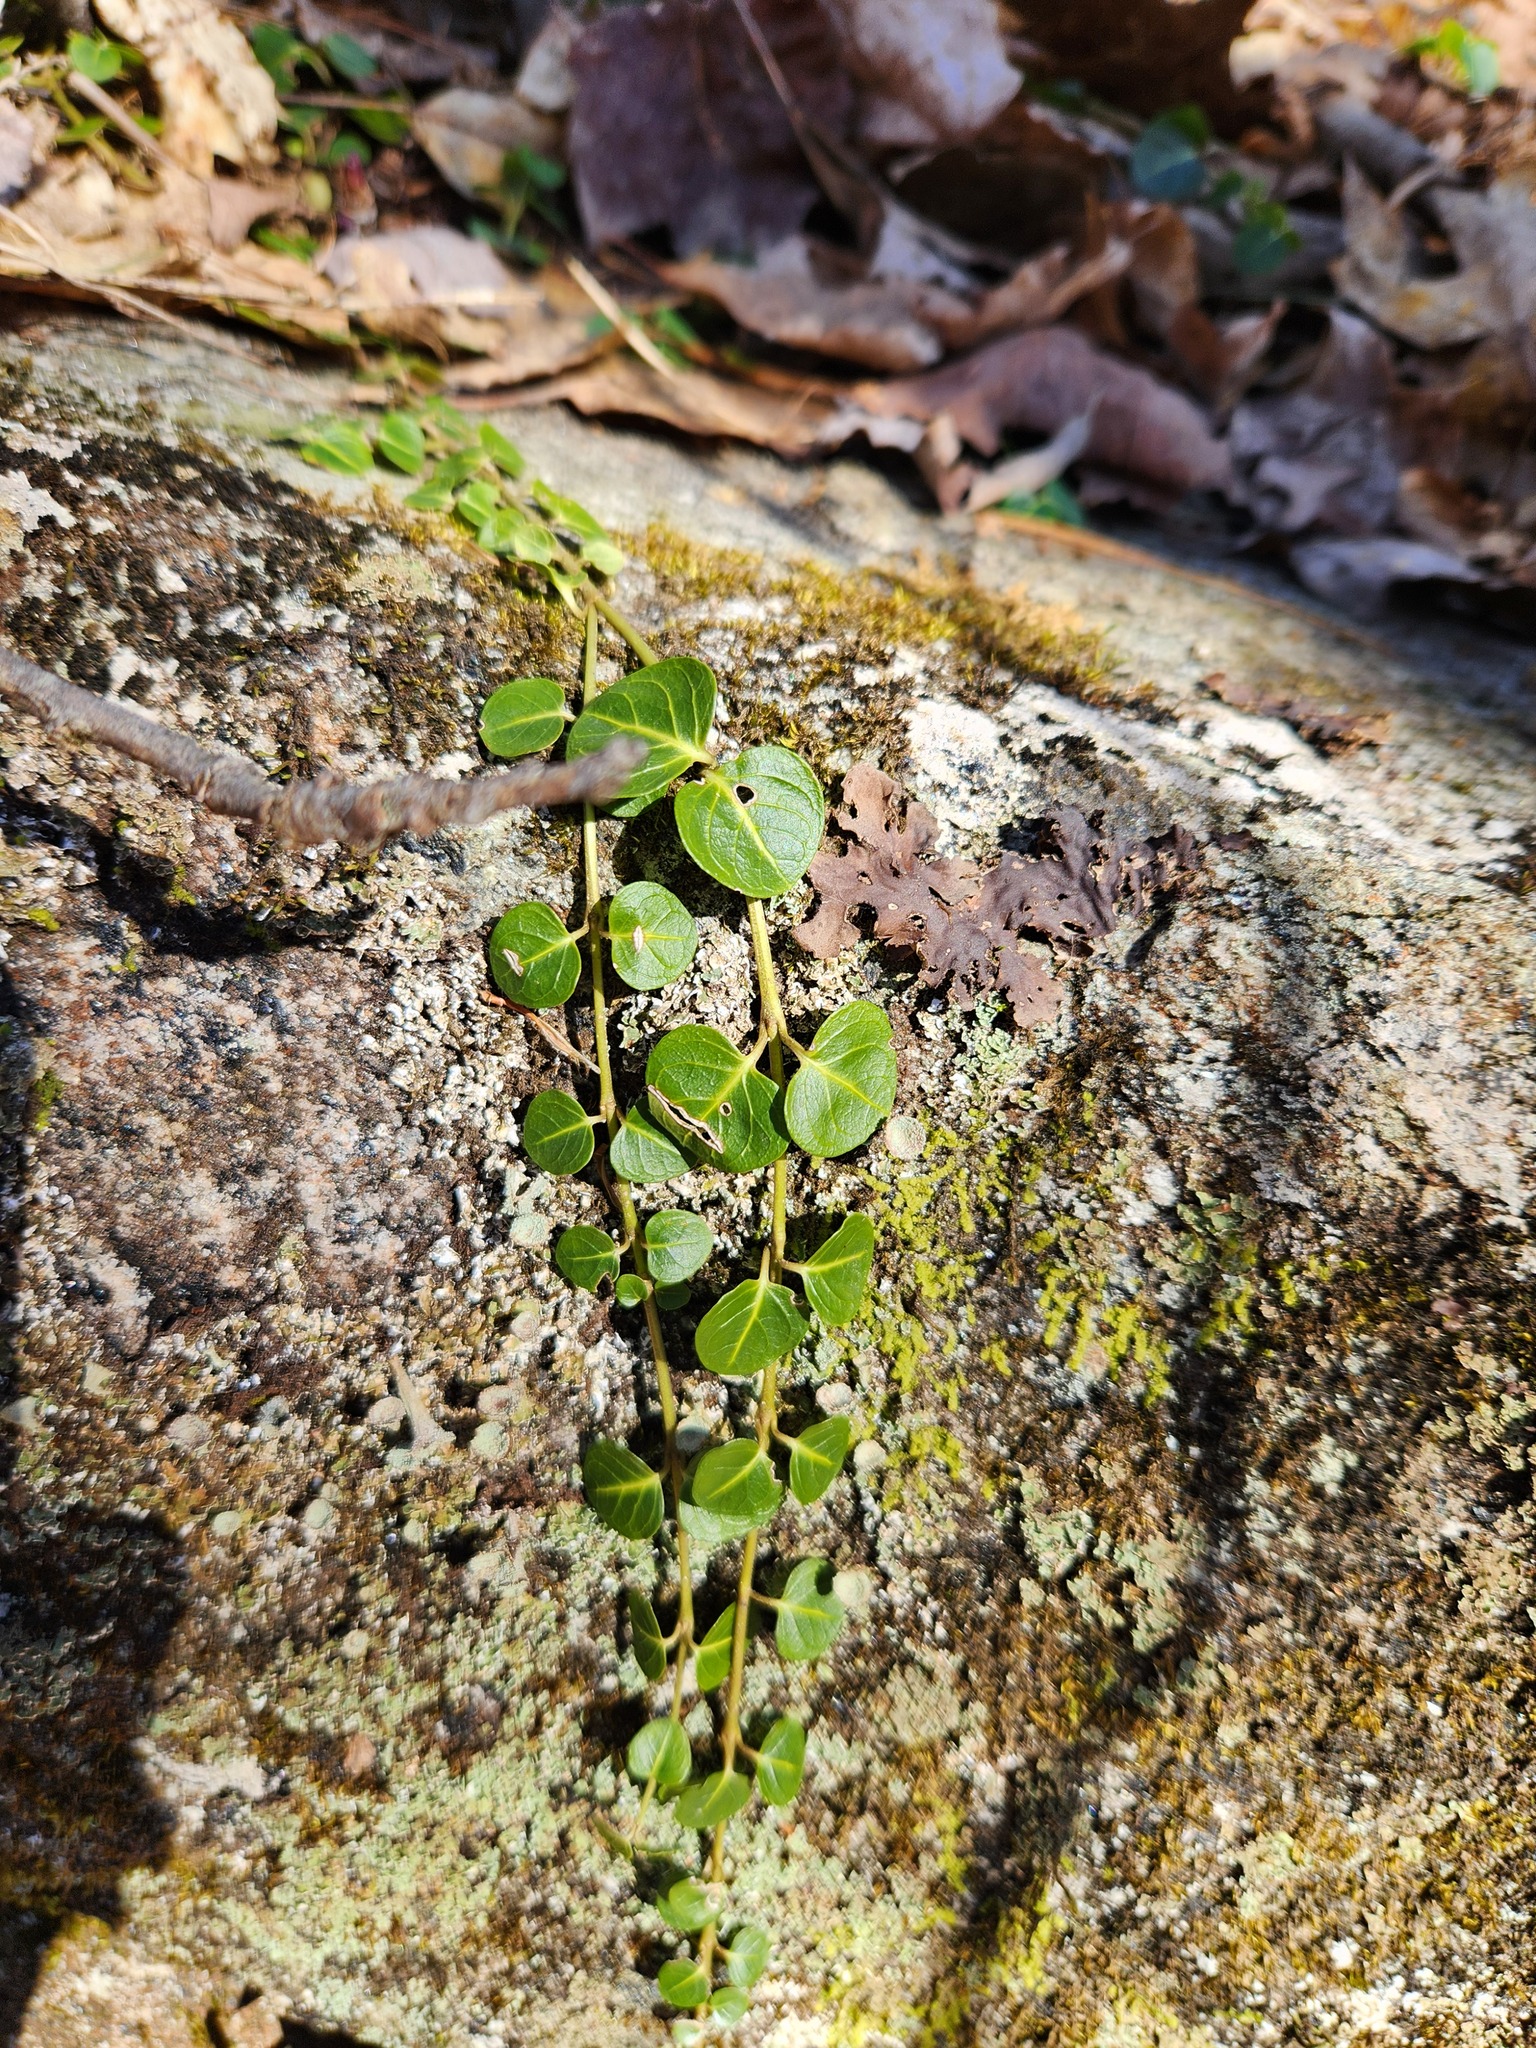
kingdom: Plantae
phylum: Tracheophyta
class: Magnoliopsida
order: Gentianales
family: Rubiaceae
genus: Mitchella
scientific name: Mitchella repens
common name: Partridge-berry
